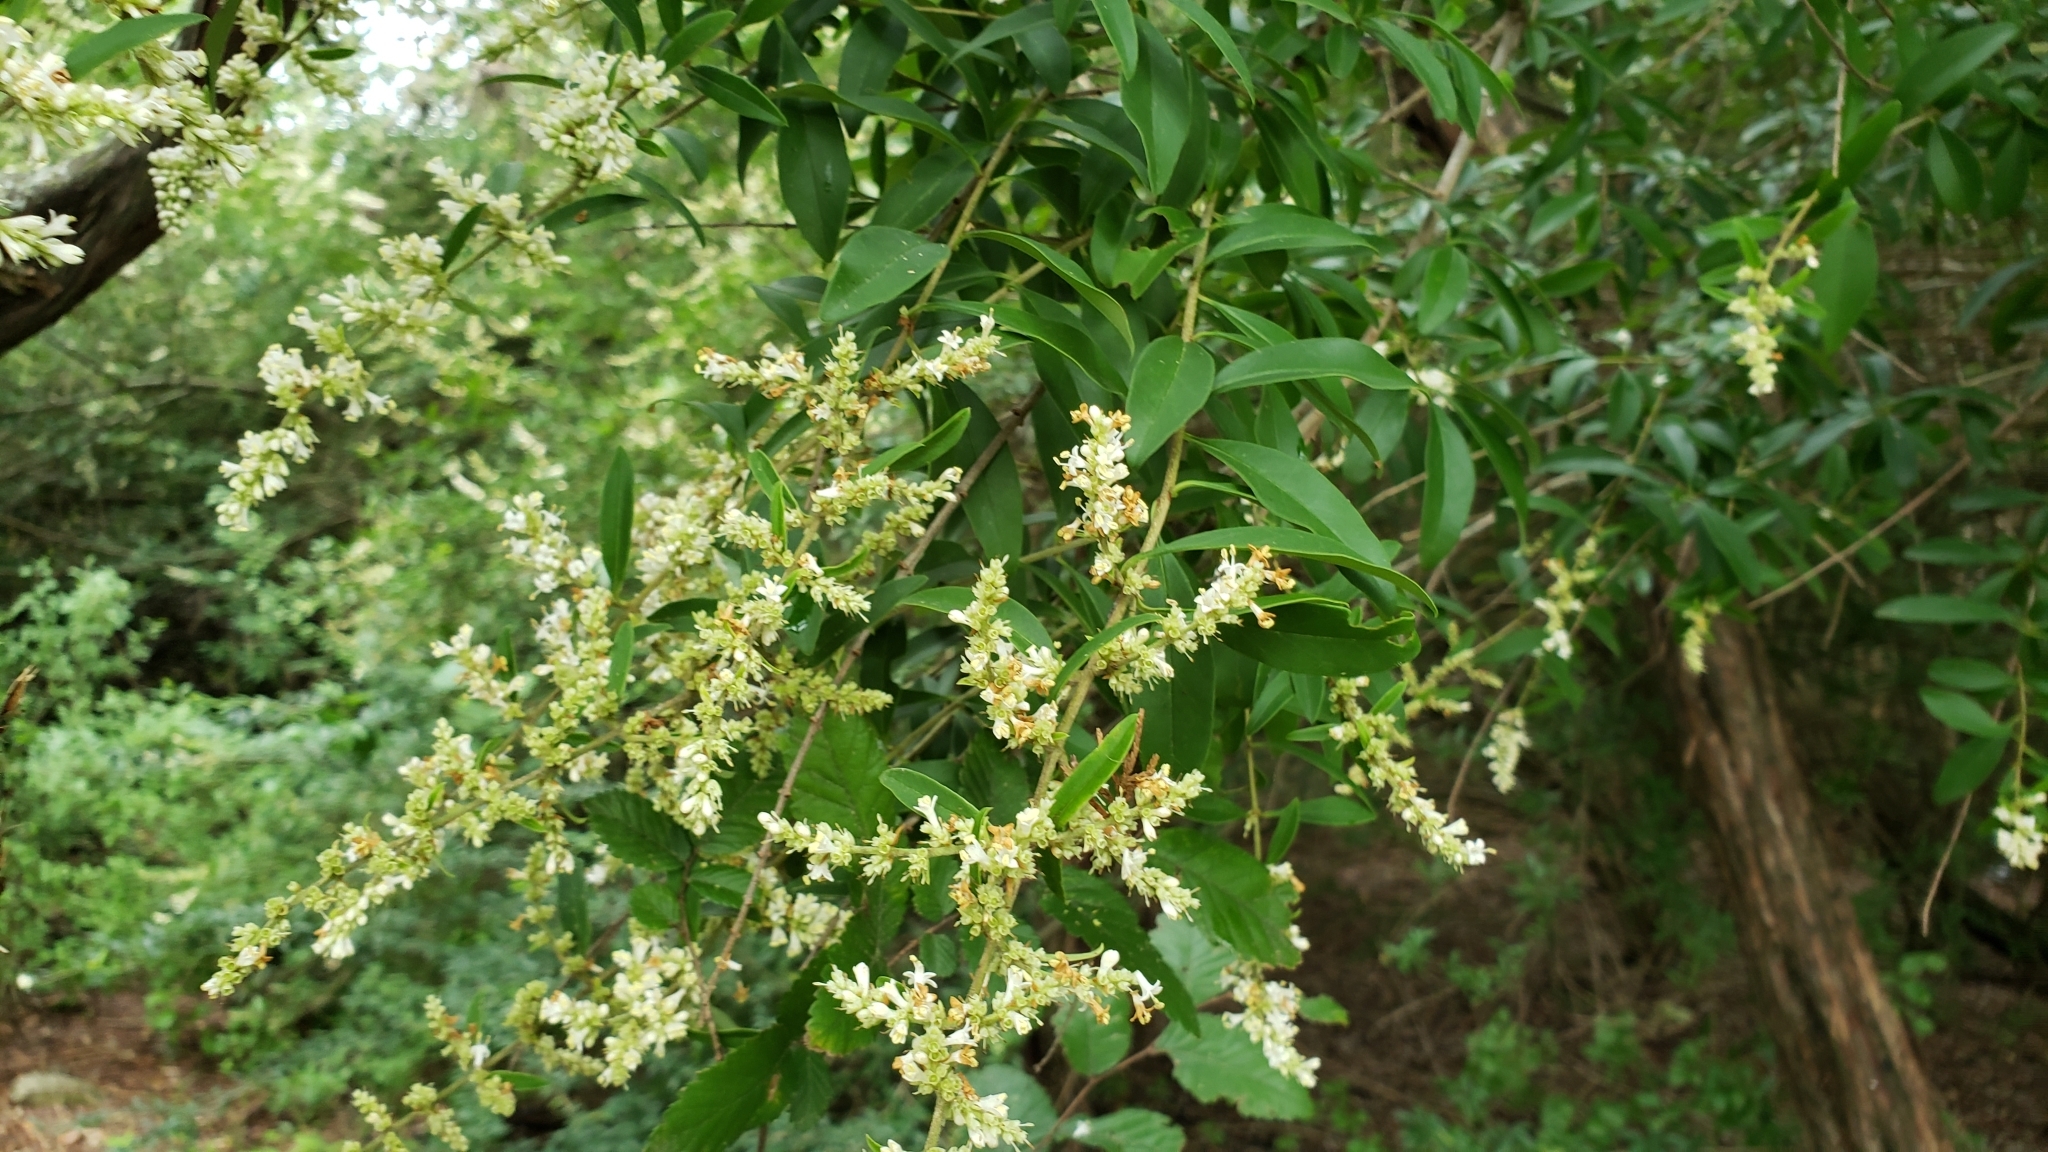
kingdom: Plantae
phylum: Tracheophyta
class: Magnoliopsida
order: Lamiales
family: Oleaceae
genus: Ligustrum
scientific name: Ligustrum quihoui
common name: Waxyleaf privet
